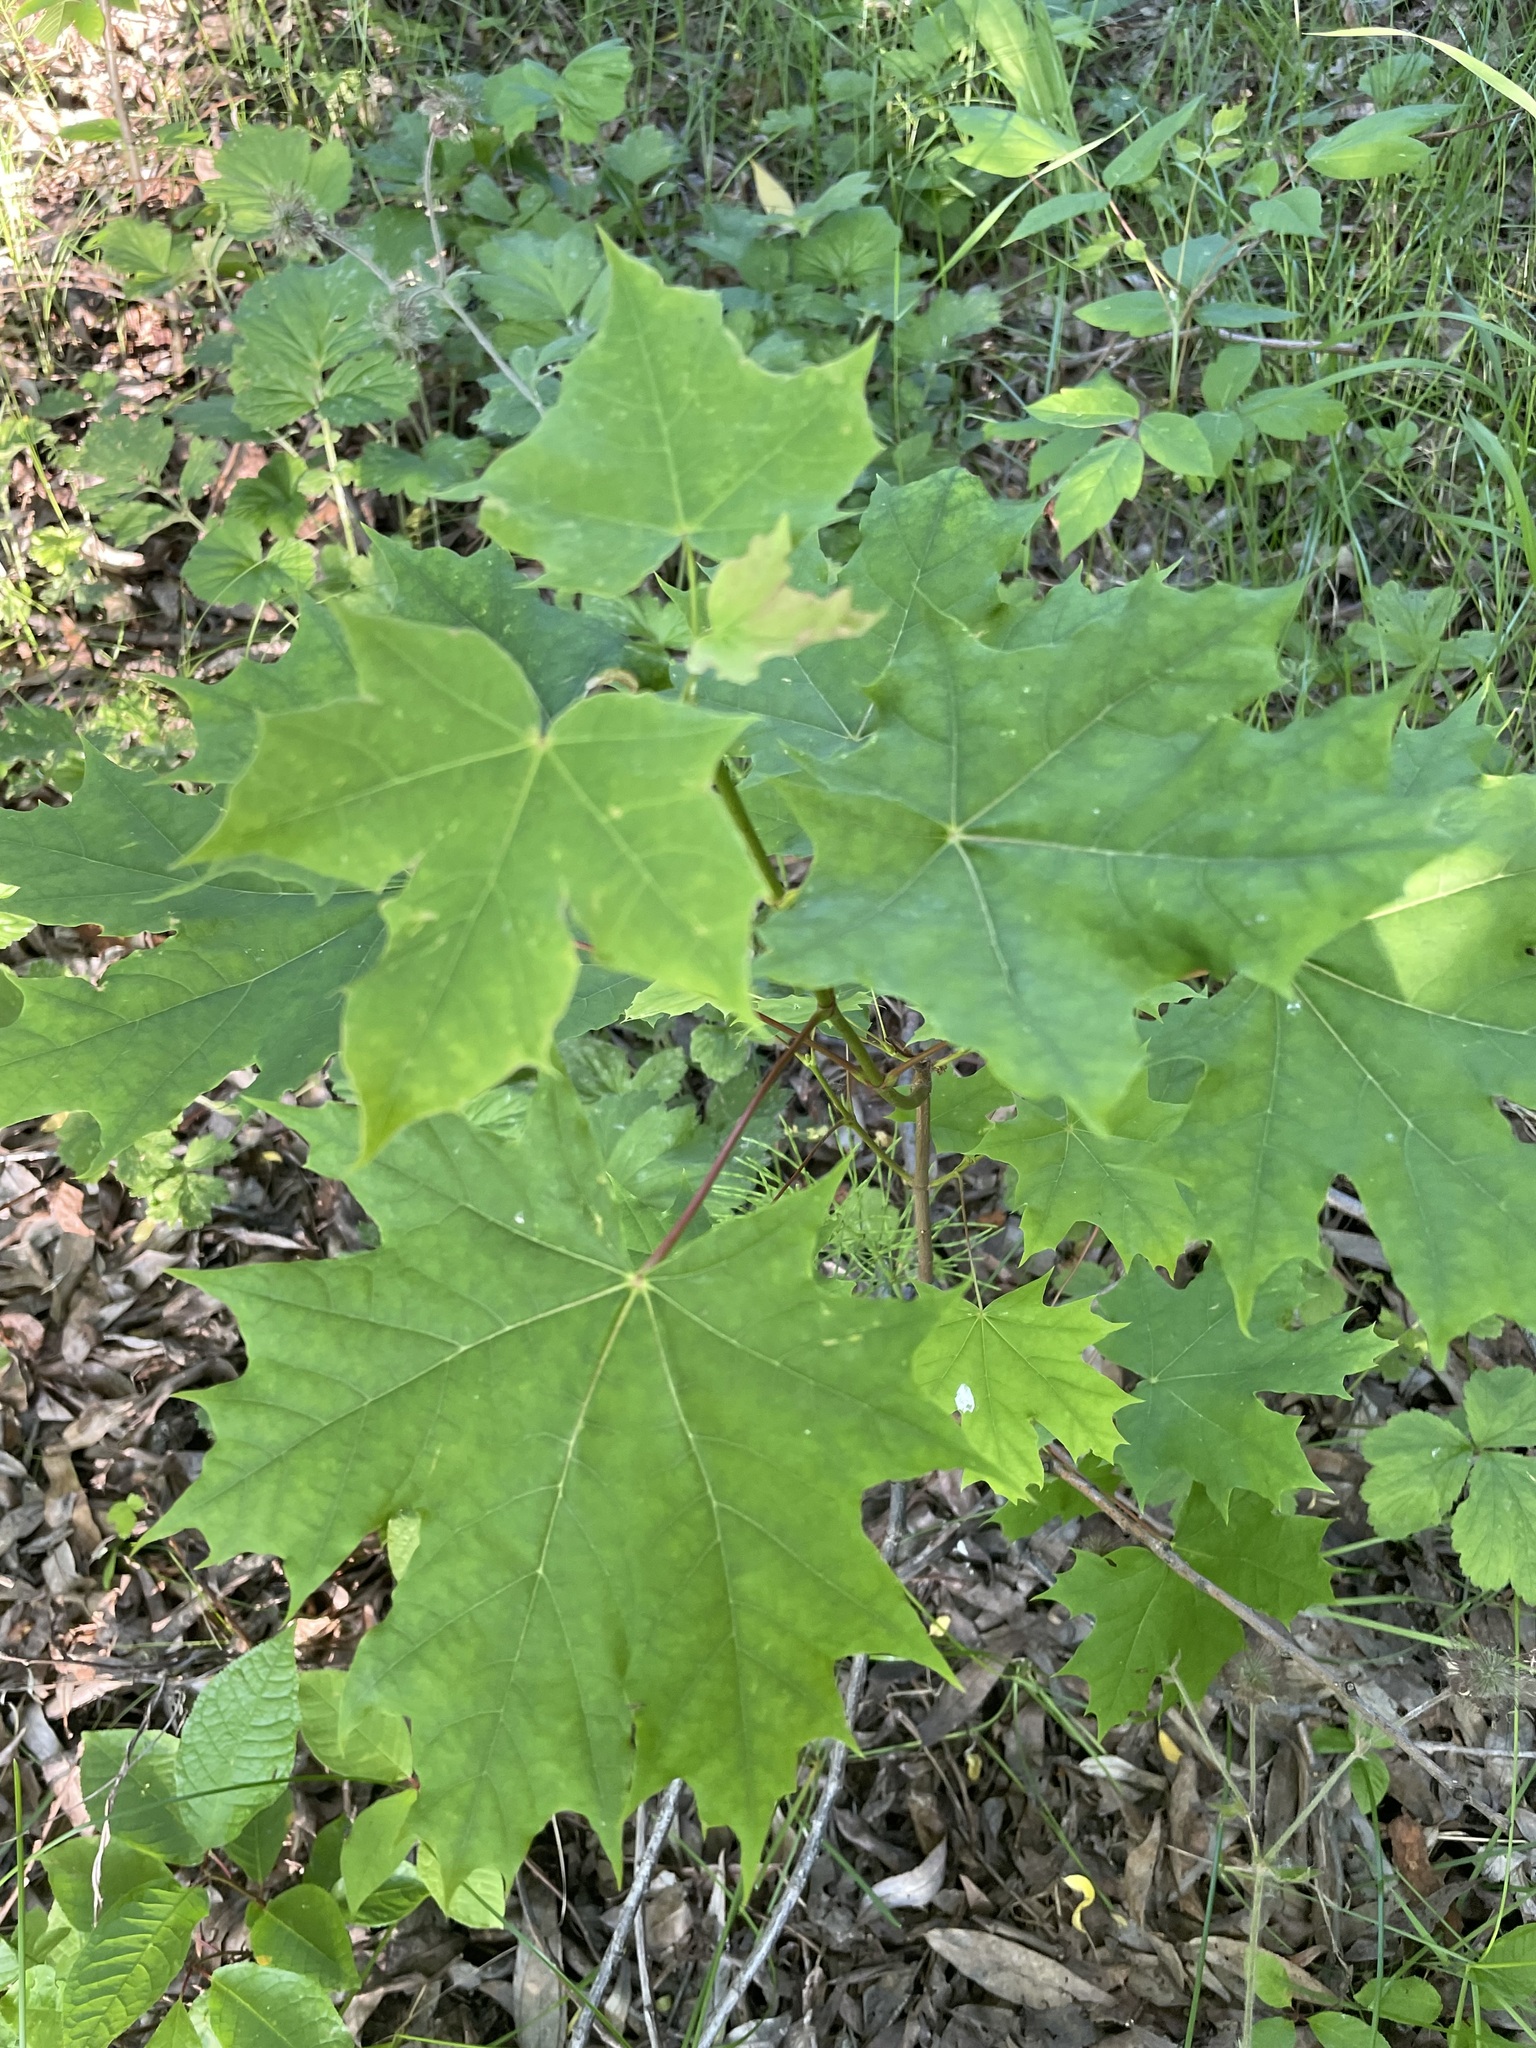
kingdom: Plantae
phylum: Tracheophyta
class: Magnoliopsida
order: Sapindales
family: Sapindaceae
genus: Acer
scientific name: Acer platanoides
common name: Norway maple
